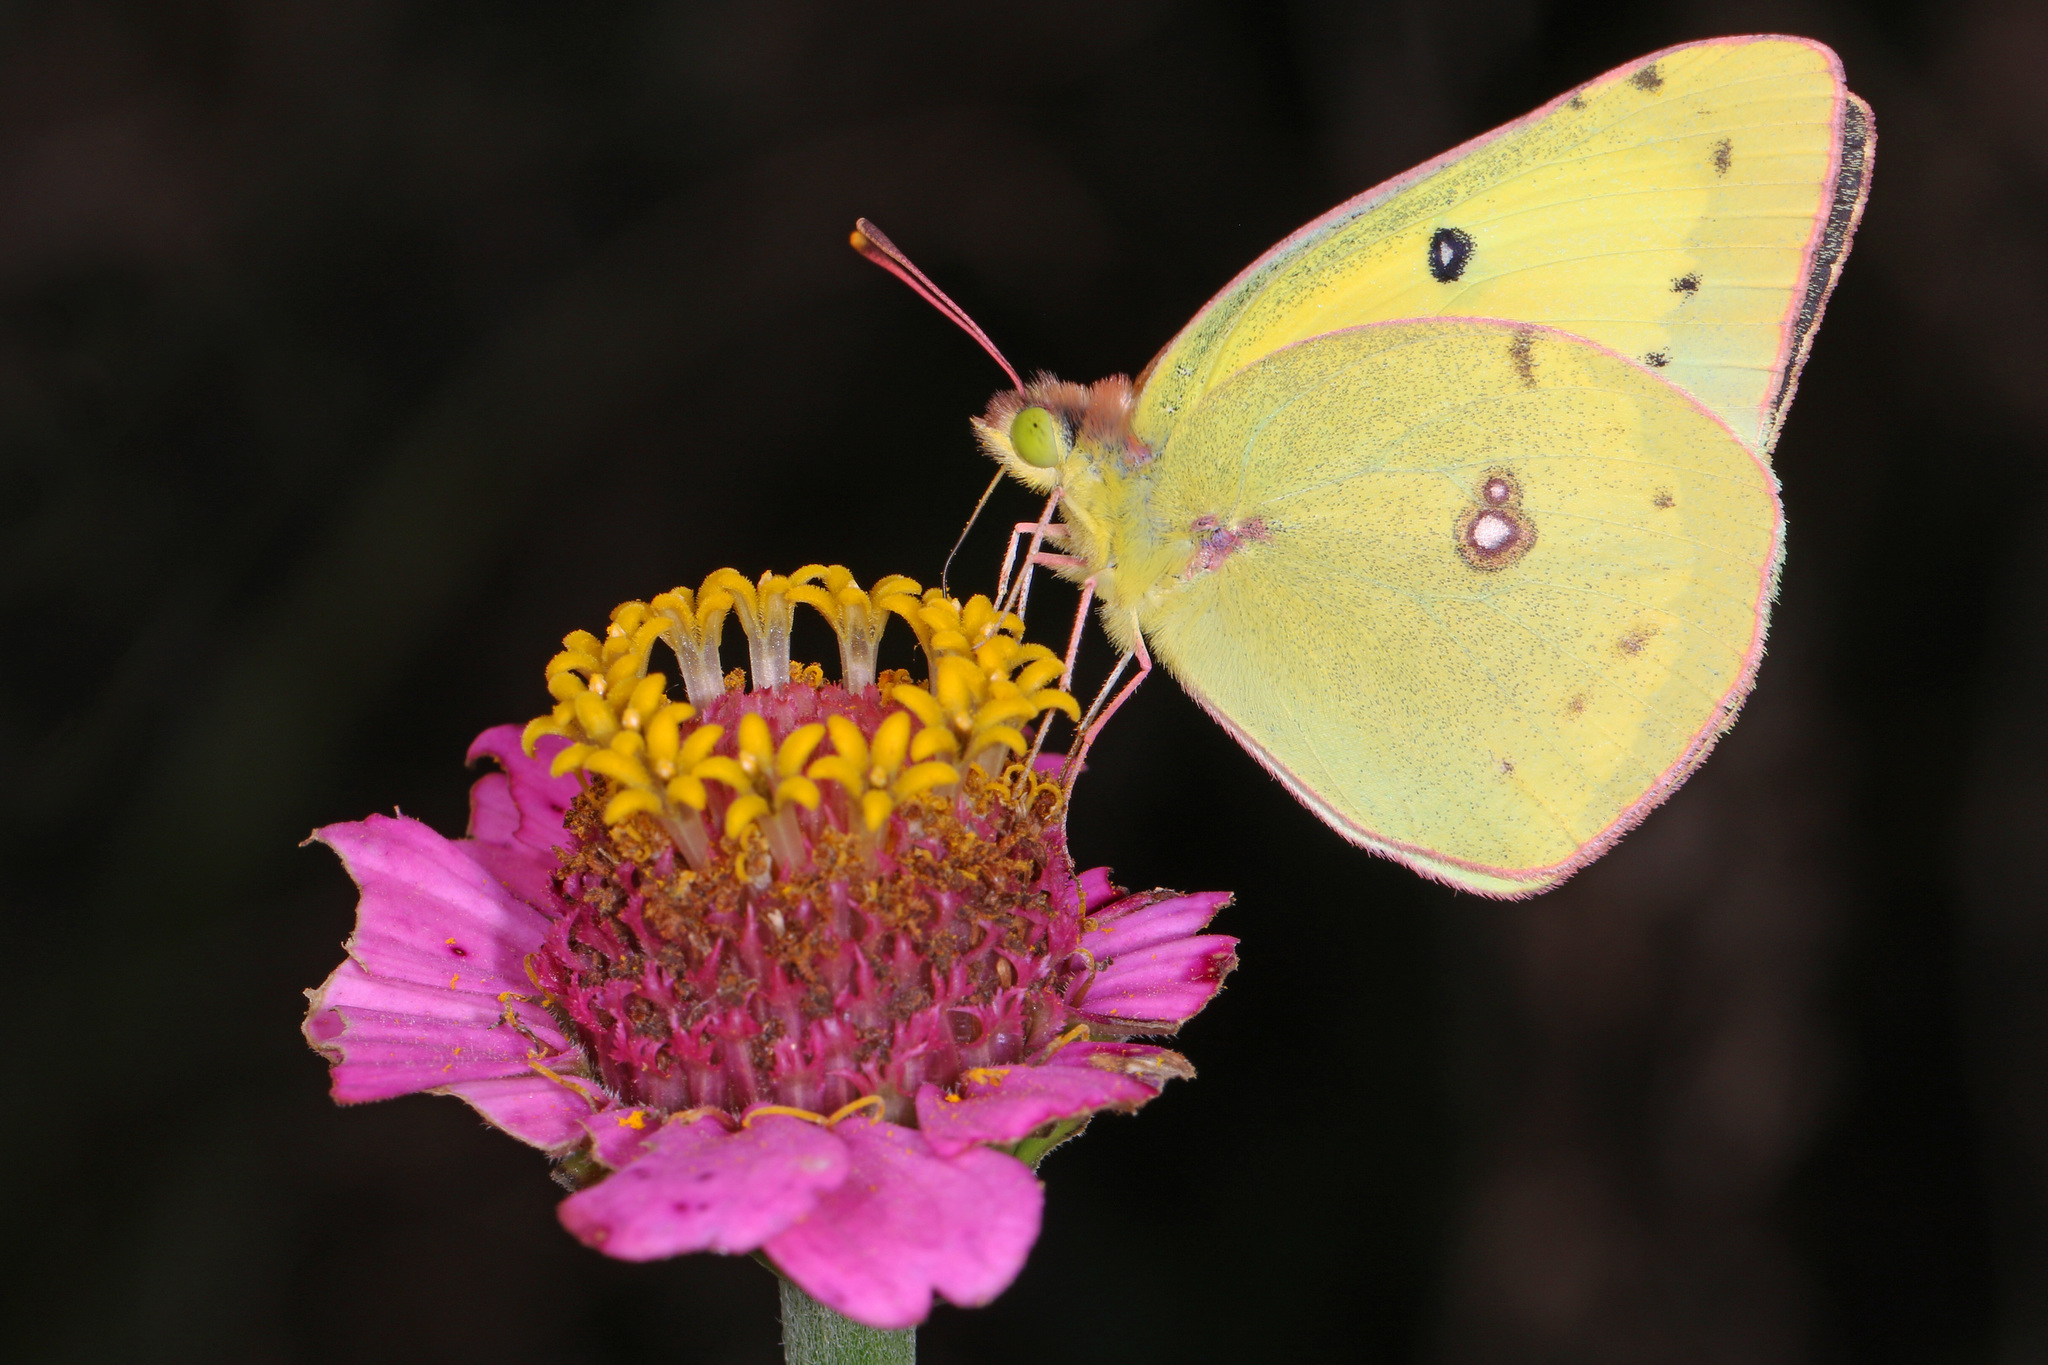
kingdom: Animalia
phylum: Arthropoda
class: Insecta
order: Lepidoptera
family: Pieridae
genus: Colias
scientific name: Colias eurytheme
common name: Alfalfa butterfly
